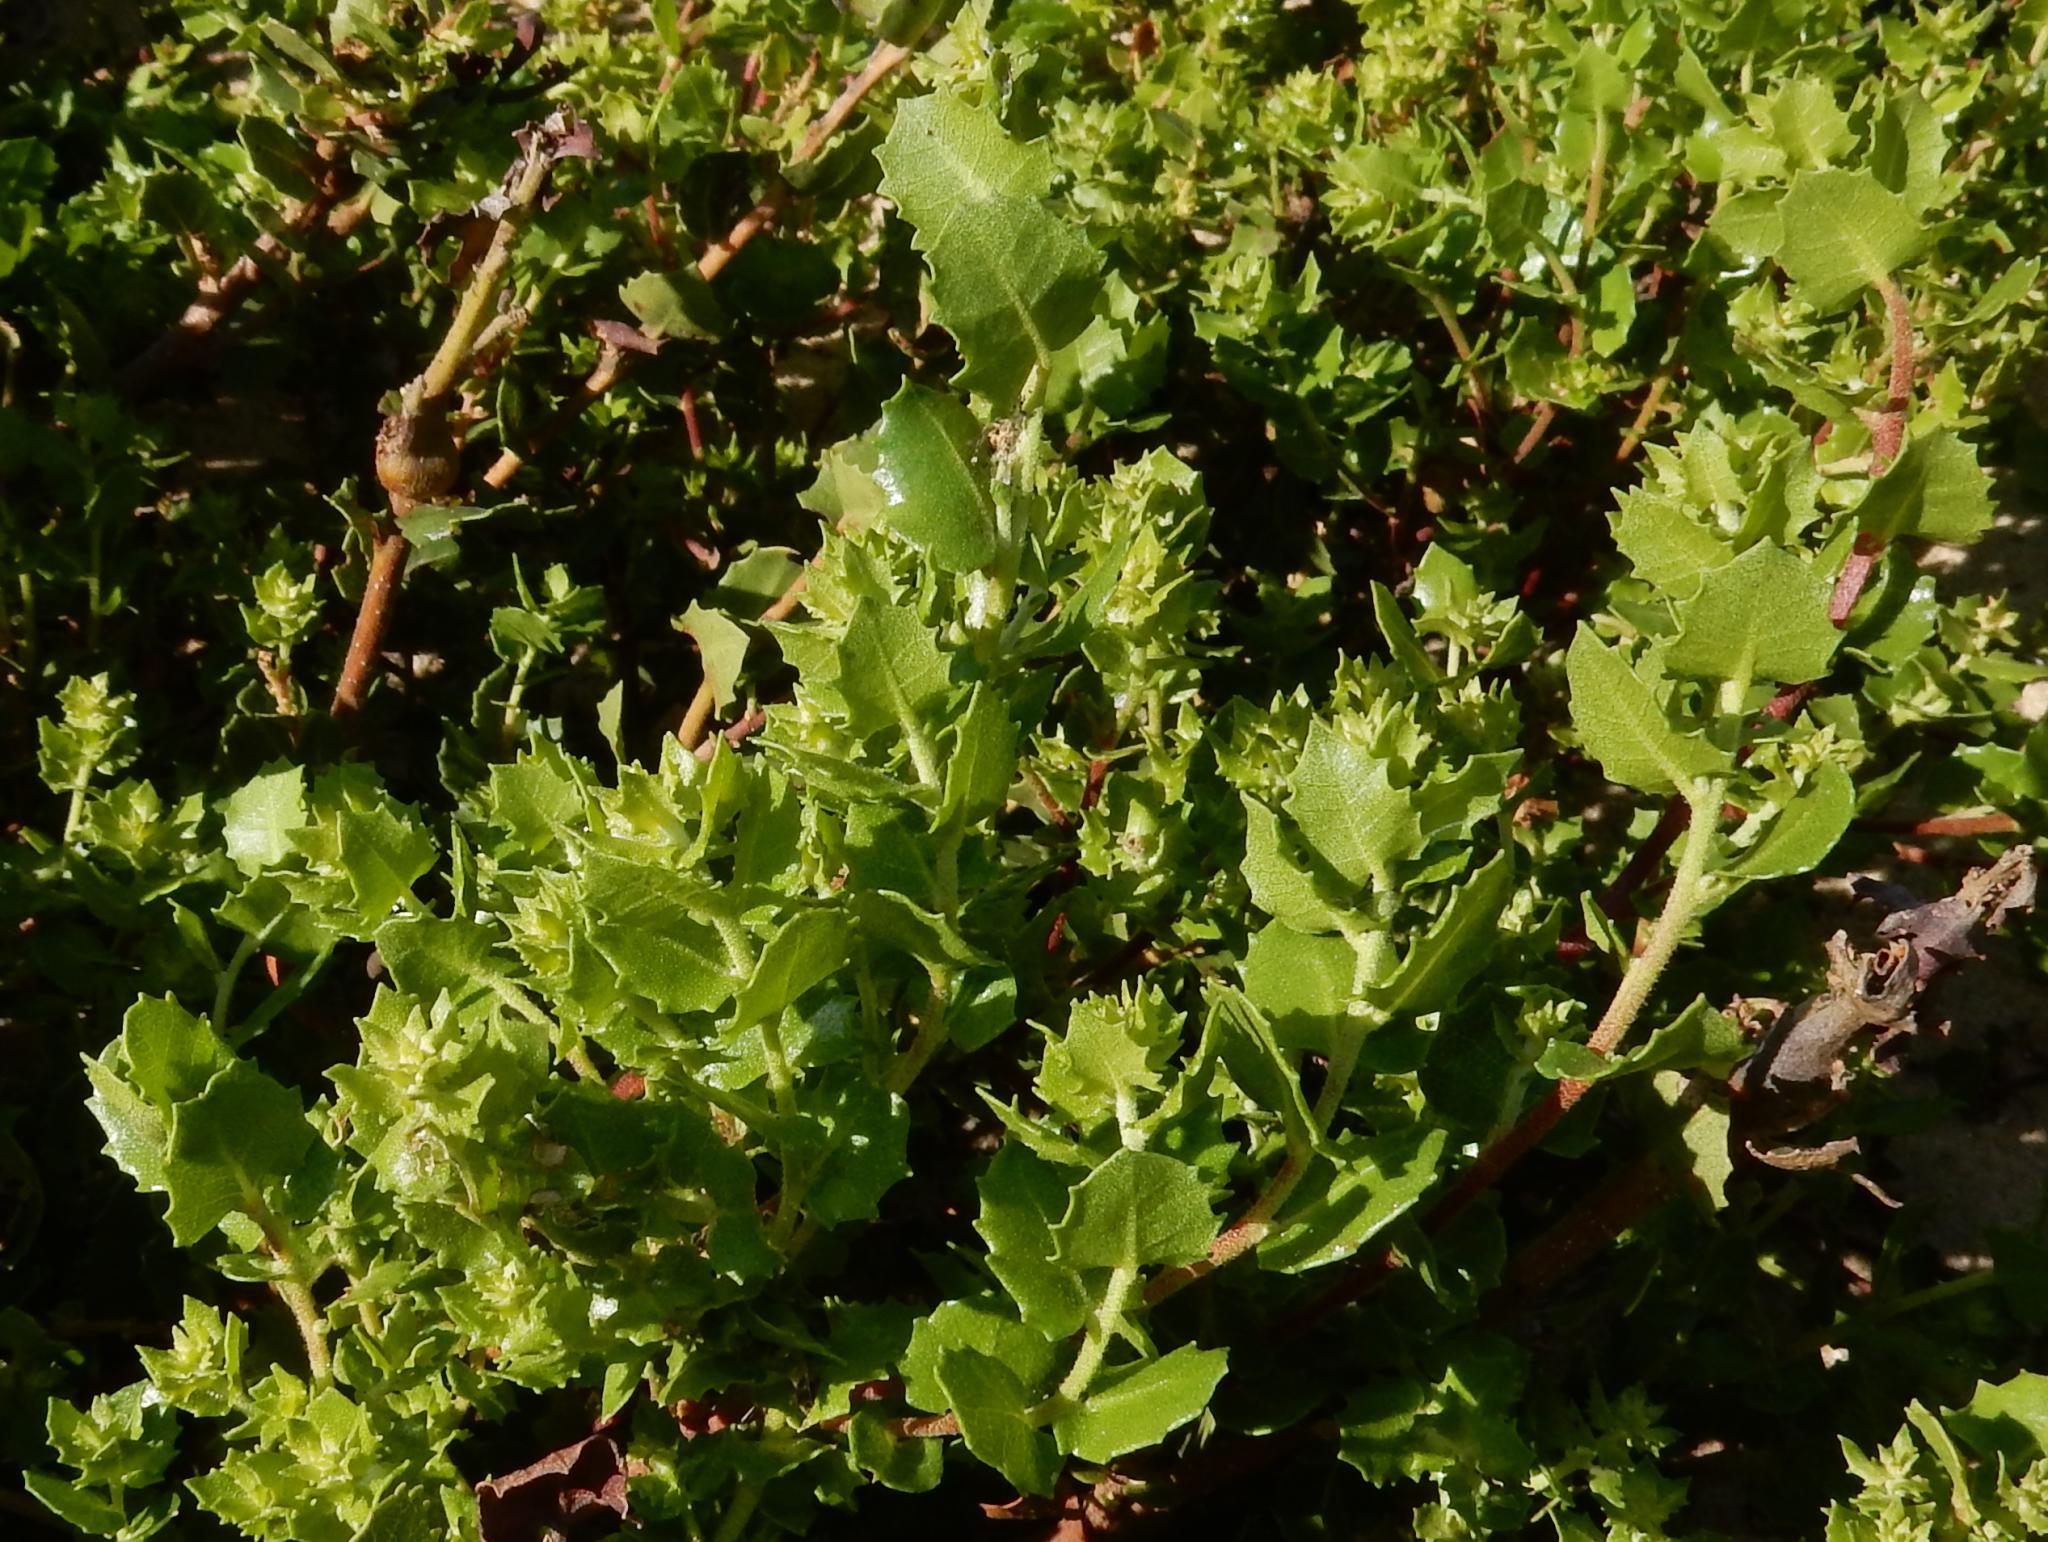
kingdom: Plantae
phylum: Tracheophyta
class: Magnoliopsida
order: Fagales
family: Myricaceae
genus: Morella
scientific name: Morella cordifolia
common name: Waxberry
